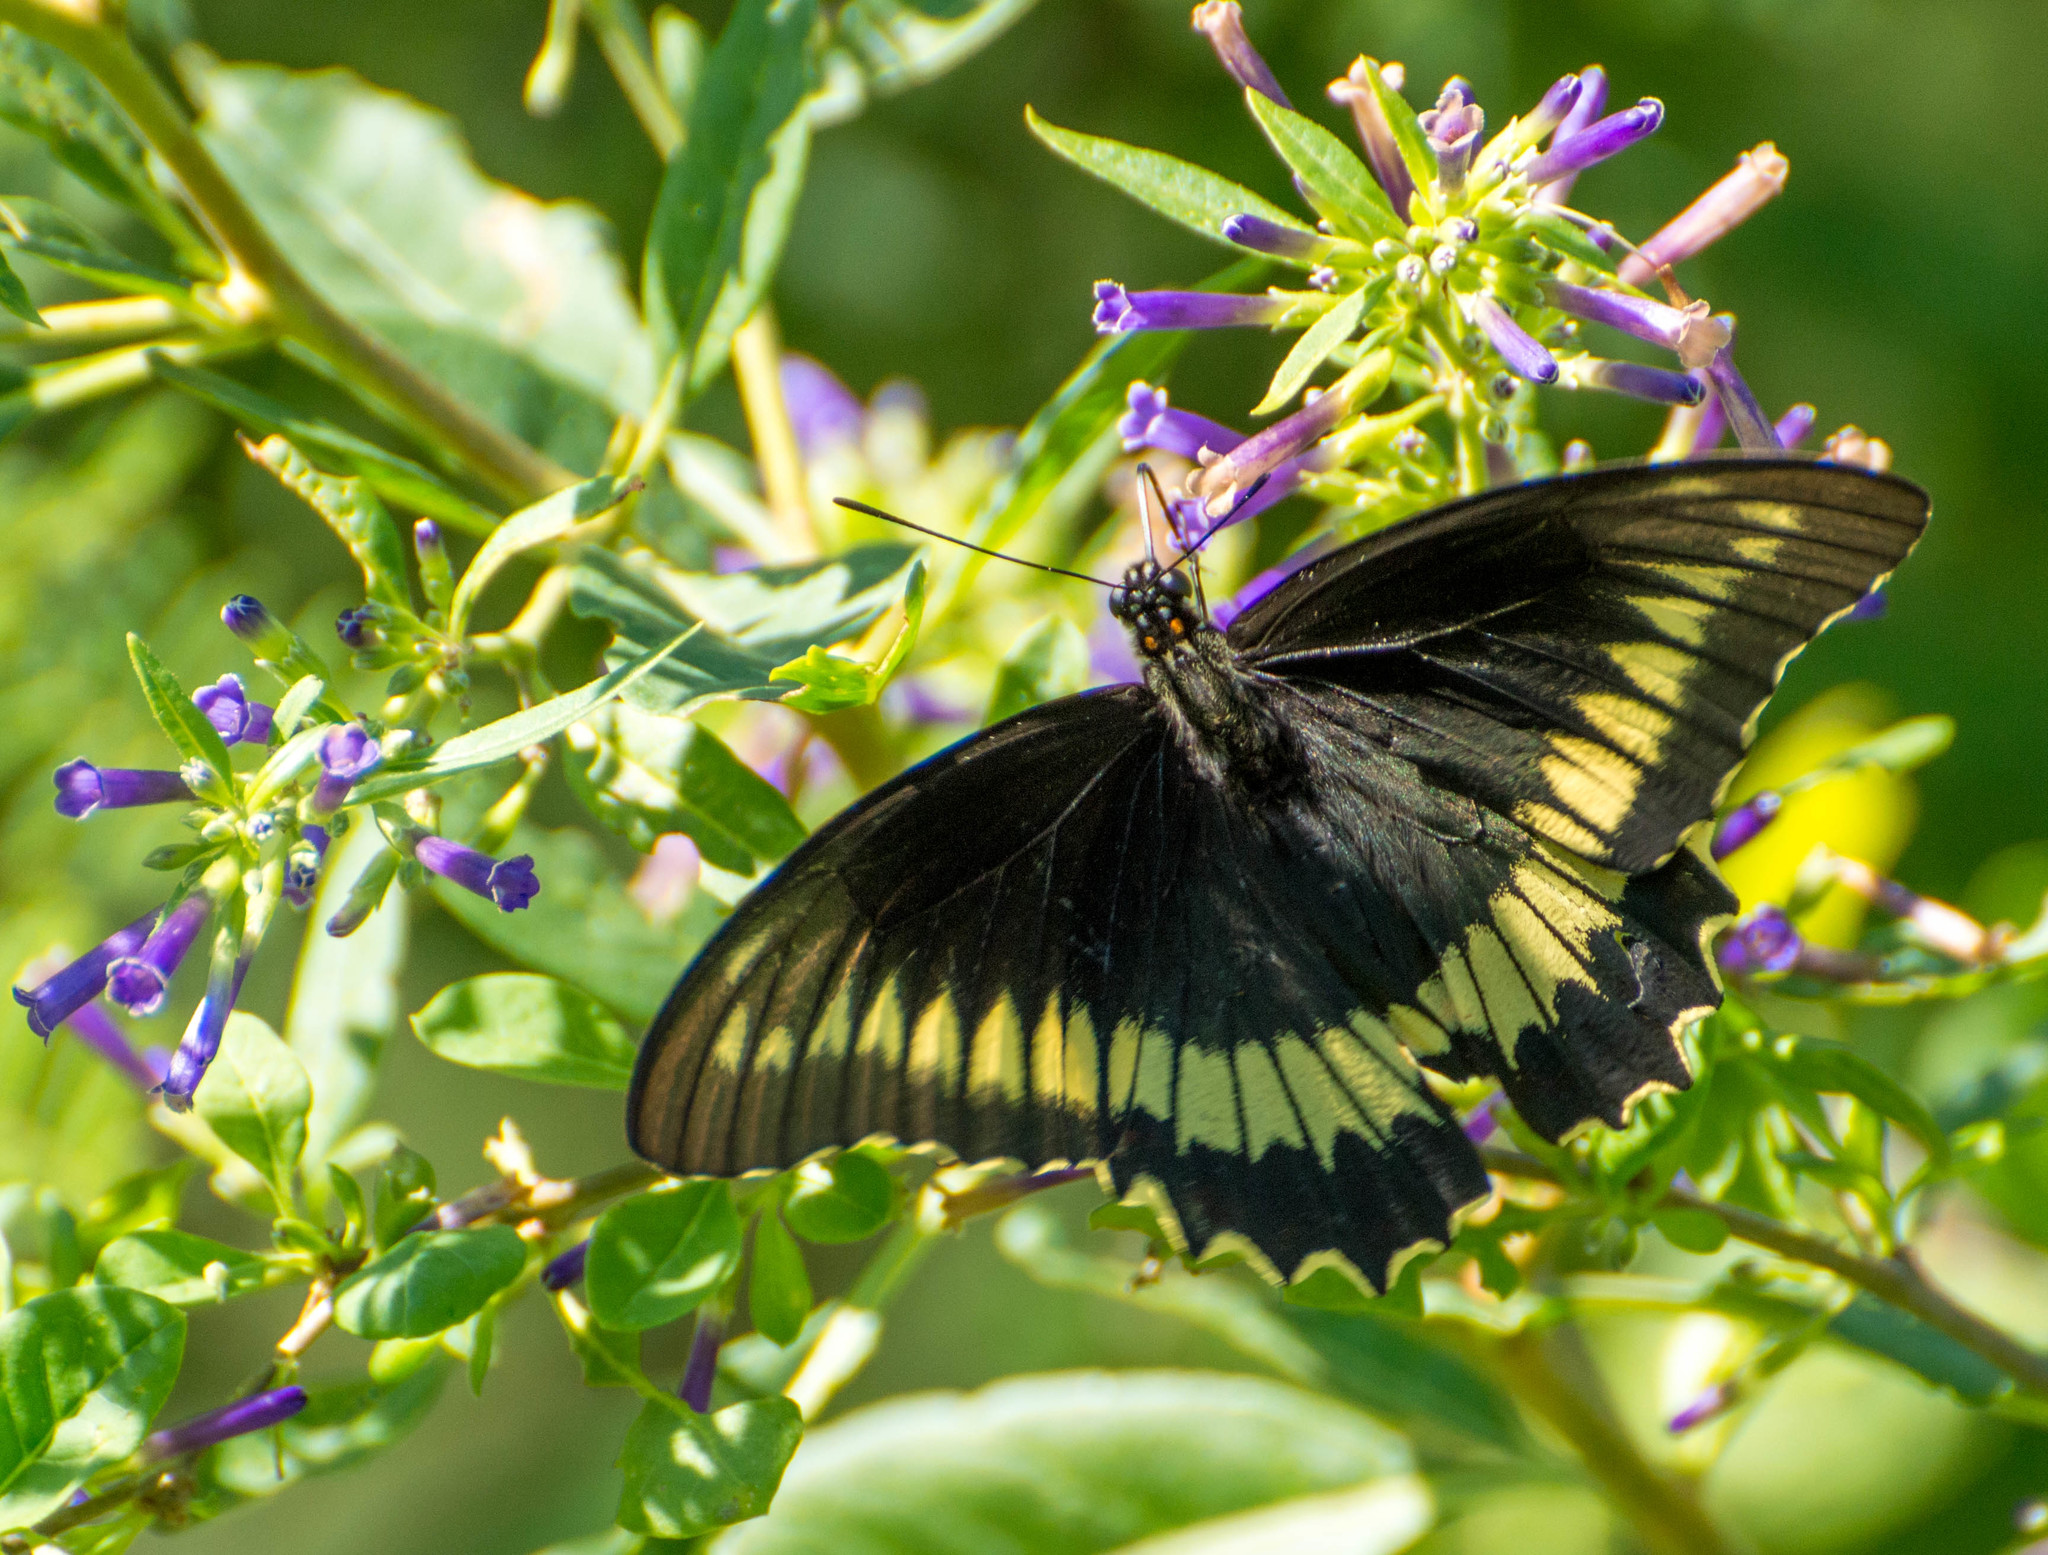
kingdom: Animalia
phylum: Arthropoda
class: Insecta
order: Lepidoptera
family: Papilionidae
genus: Battus
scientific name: Battus polydamas
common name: Polydamas swallowtail
